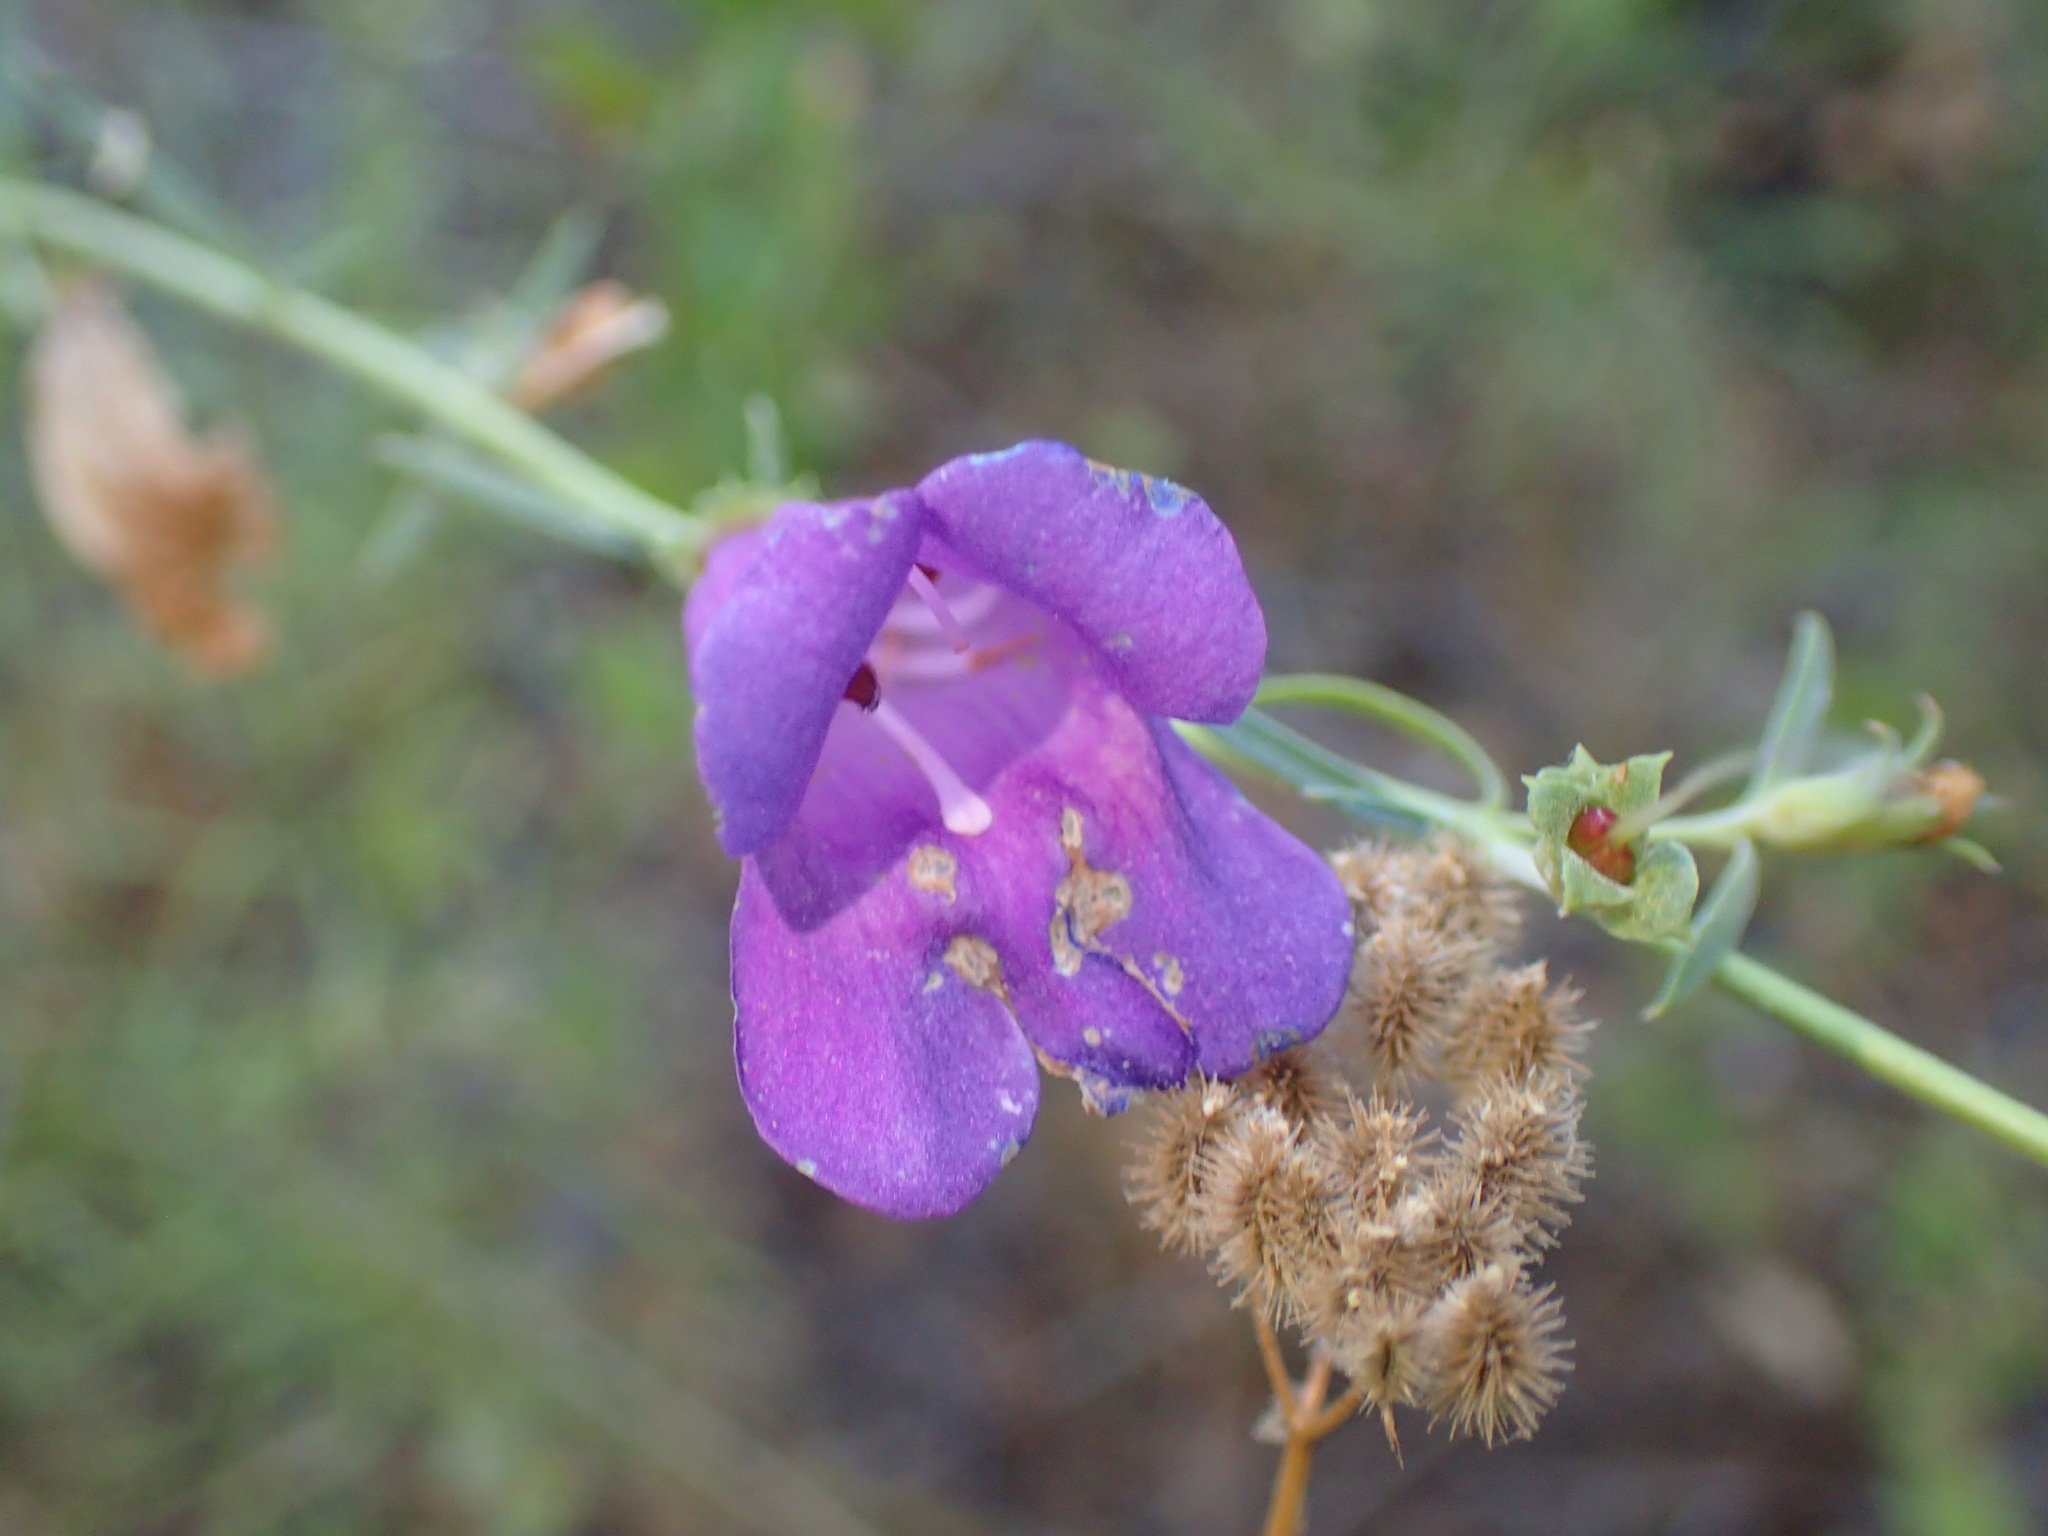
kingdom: Plantae
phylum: Tracheophyta
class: Magnoliopsida
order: Lamiales
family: Plantaginaceae
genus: Penstemon
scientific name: Penstemon heterophyllus
